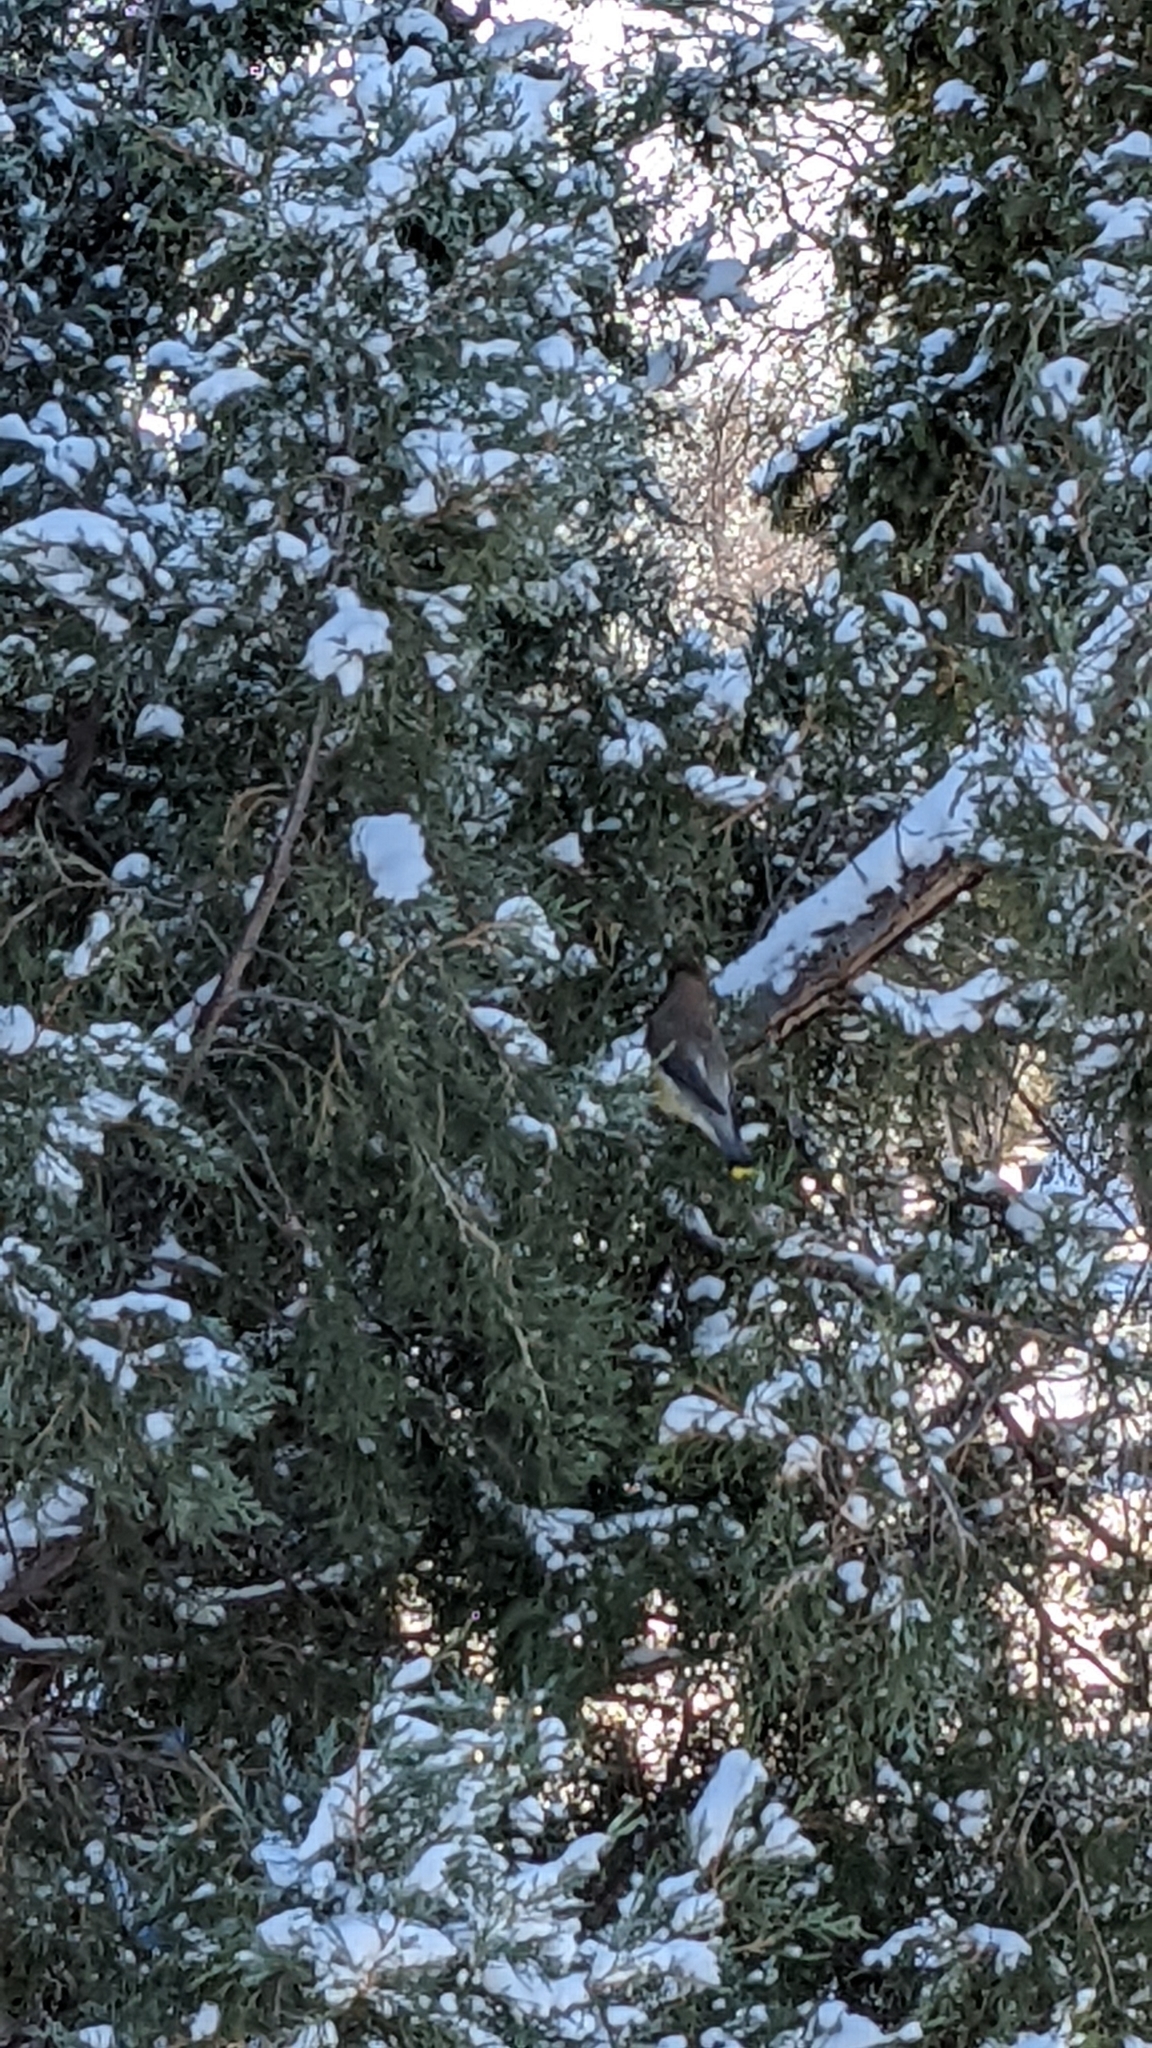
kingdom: Animalia
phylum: Chordata
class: Aves
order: Passeriformes
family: Bombycillidae
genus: Bombycilla
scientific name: Bombycilla cedrorum
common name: Cedar waxwing
